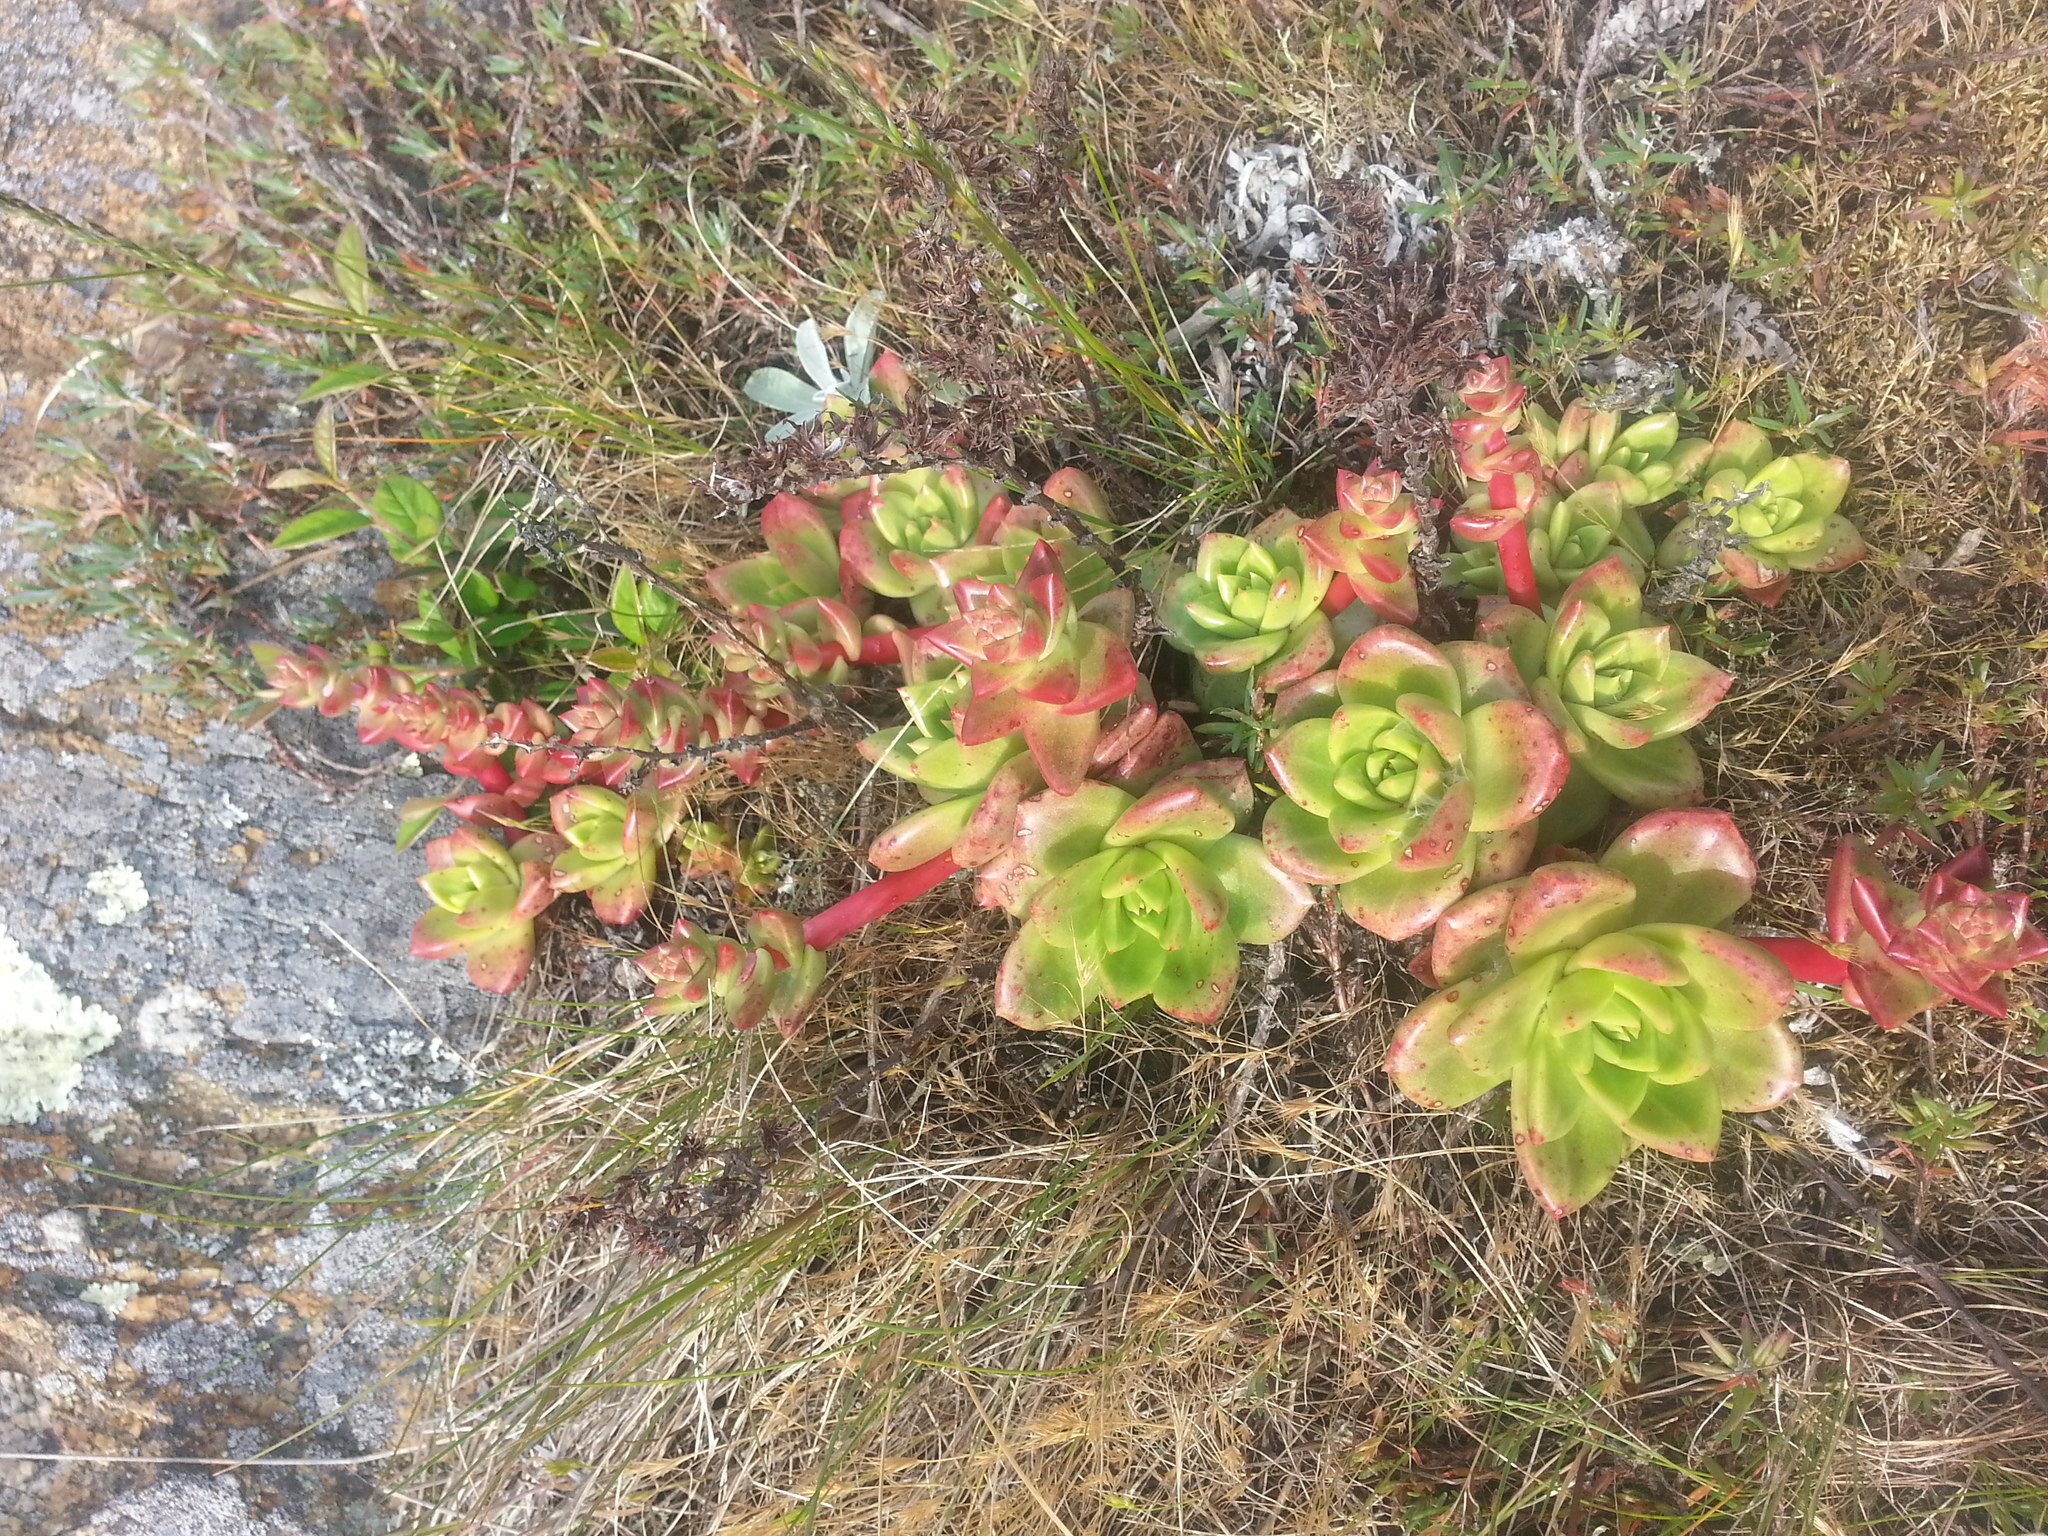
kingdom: Plantae
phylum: Tracheophyta
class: Magnoliopsida
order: Saxifragales
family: Crassulaceae
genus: Dudleya
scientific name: Dudleya farinosa
